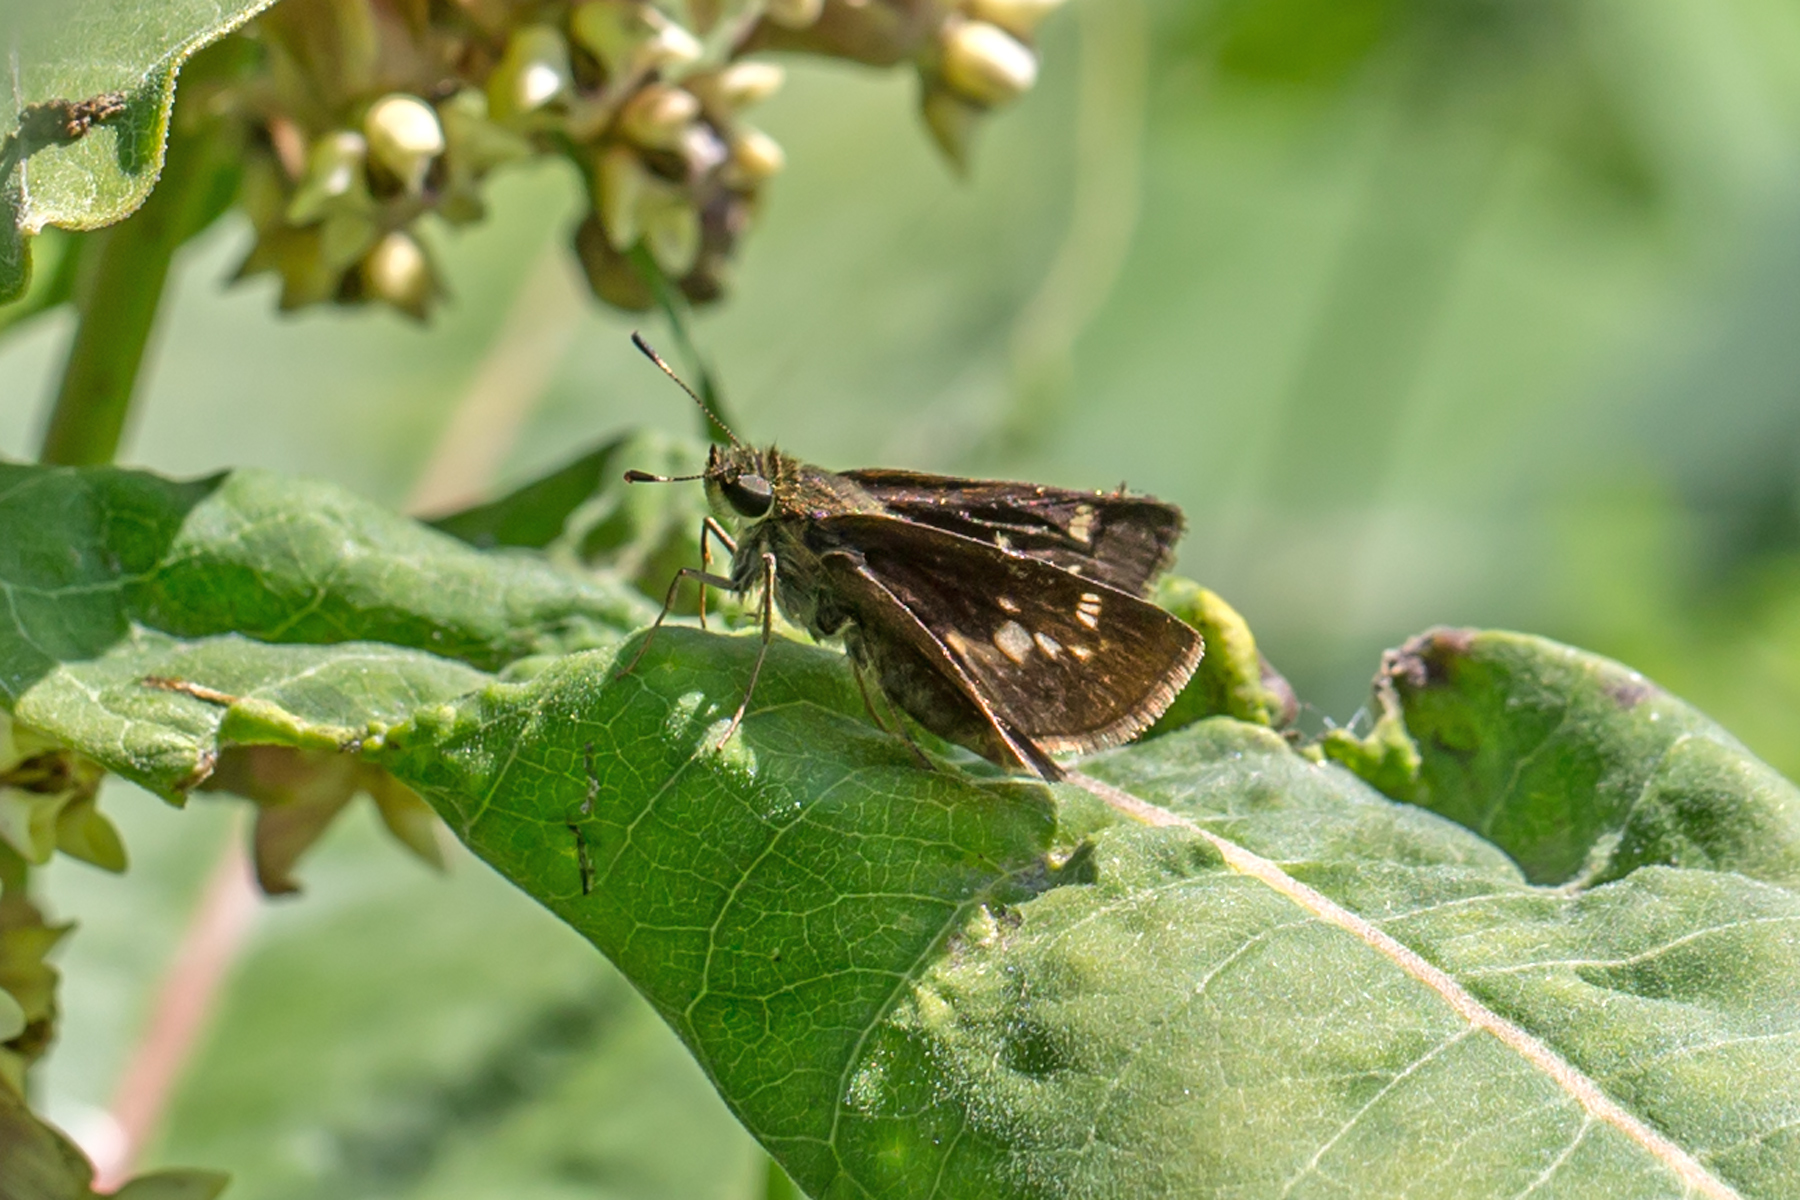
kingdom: Animalia
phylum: Arthropoda
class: Insecta
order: Lepidoptera
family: Hesperiidae
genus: Vernia
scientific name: Vernia verna
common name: Little glassywing
